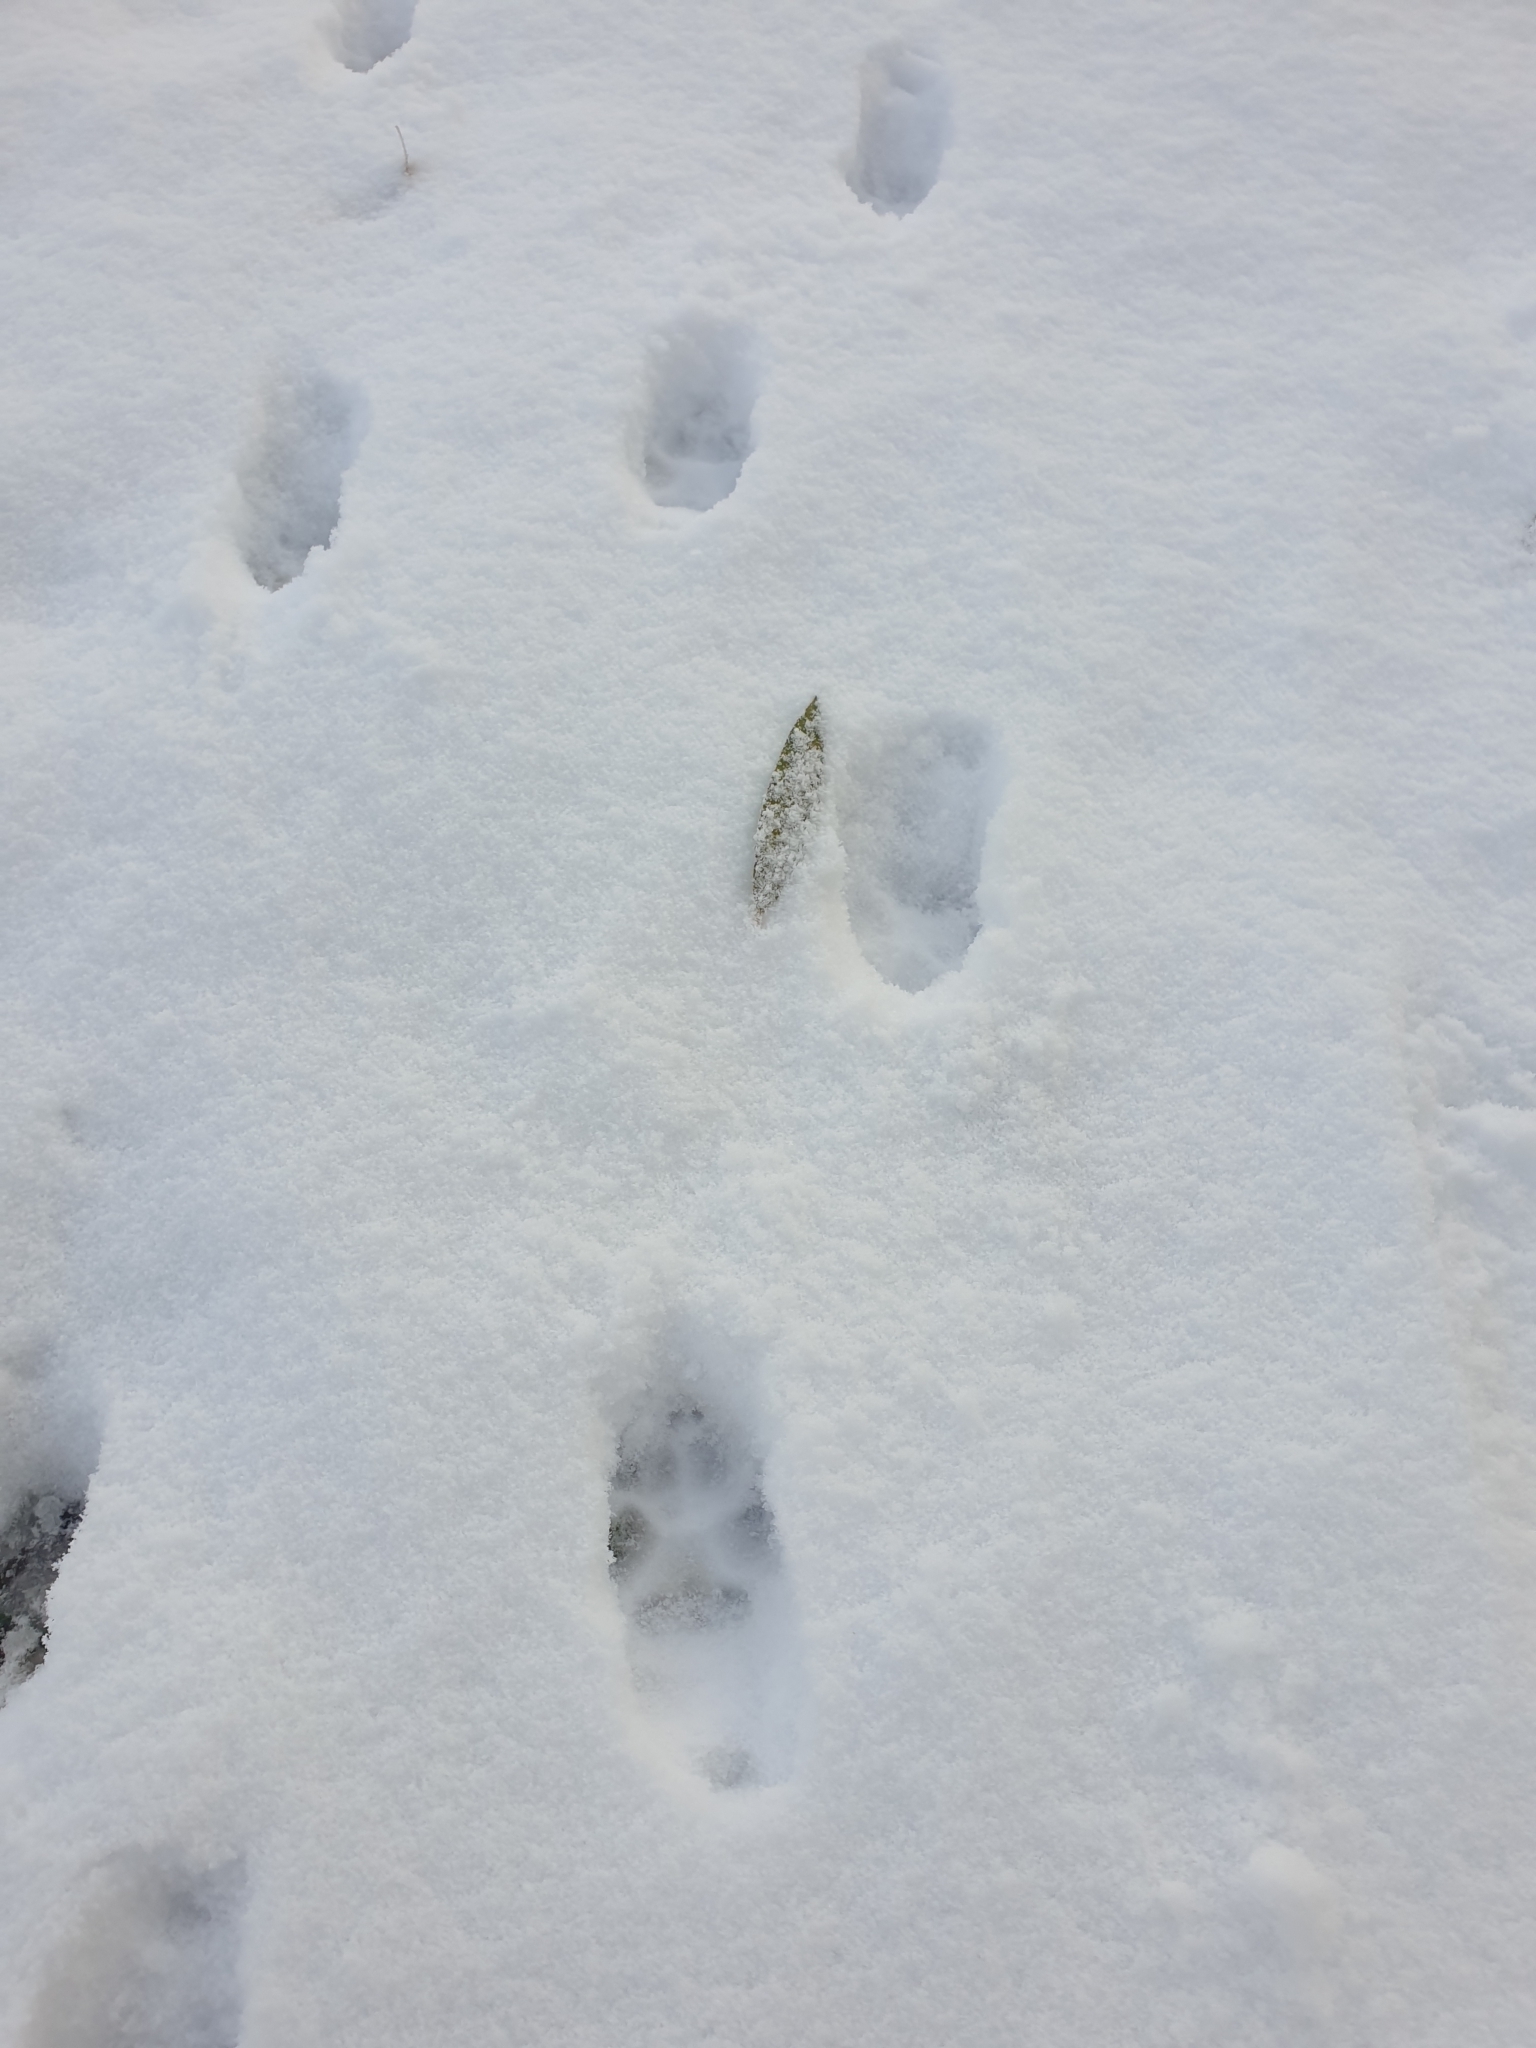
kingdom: Animalia
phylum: Chordata
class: Mammalia
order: Carnivora
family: Canidae
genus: Vulpes
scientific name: Vulpes vulpes
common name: Red fox
